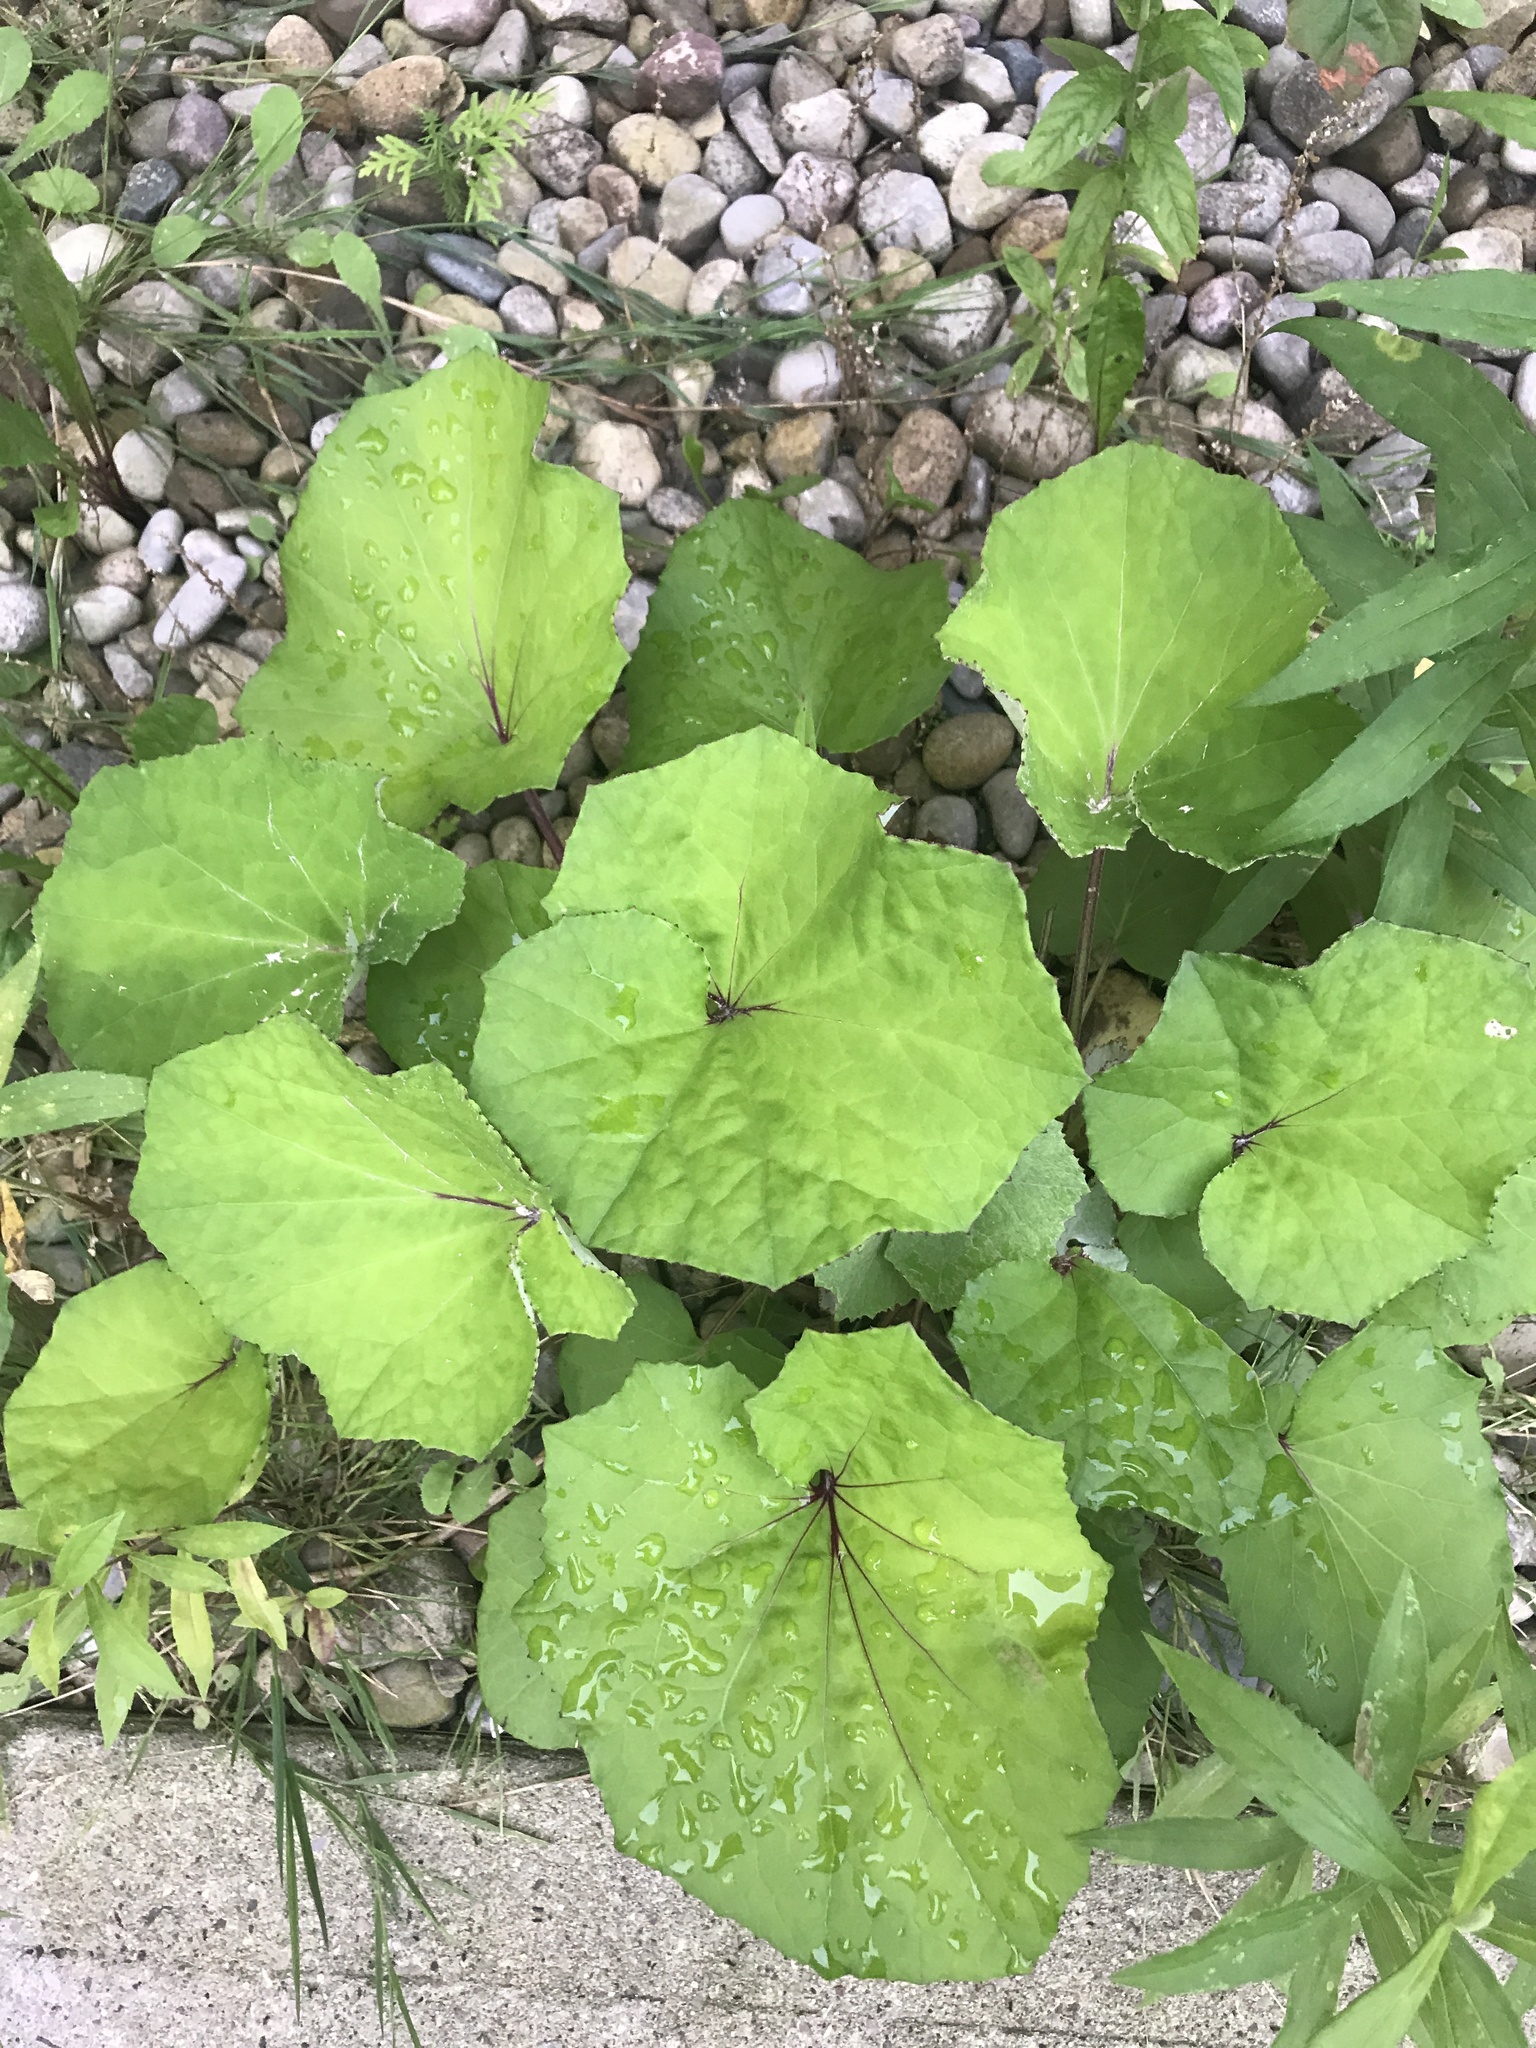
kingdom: Plantae
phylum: Tracheophyta
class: Magnoliopsida
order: Asterales
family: Asteraceae
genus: Tussilago
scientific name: Tussilago farfara
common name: Coltsfoot
